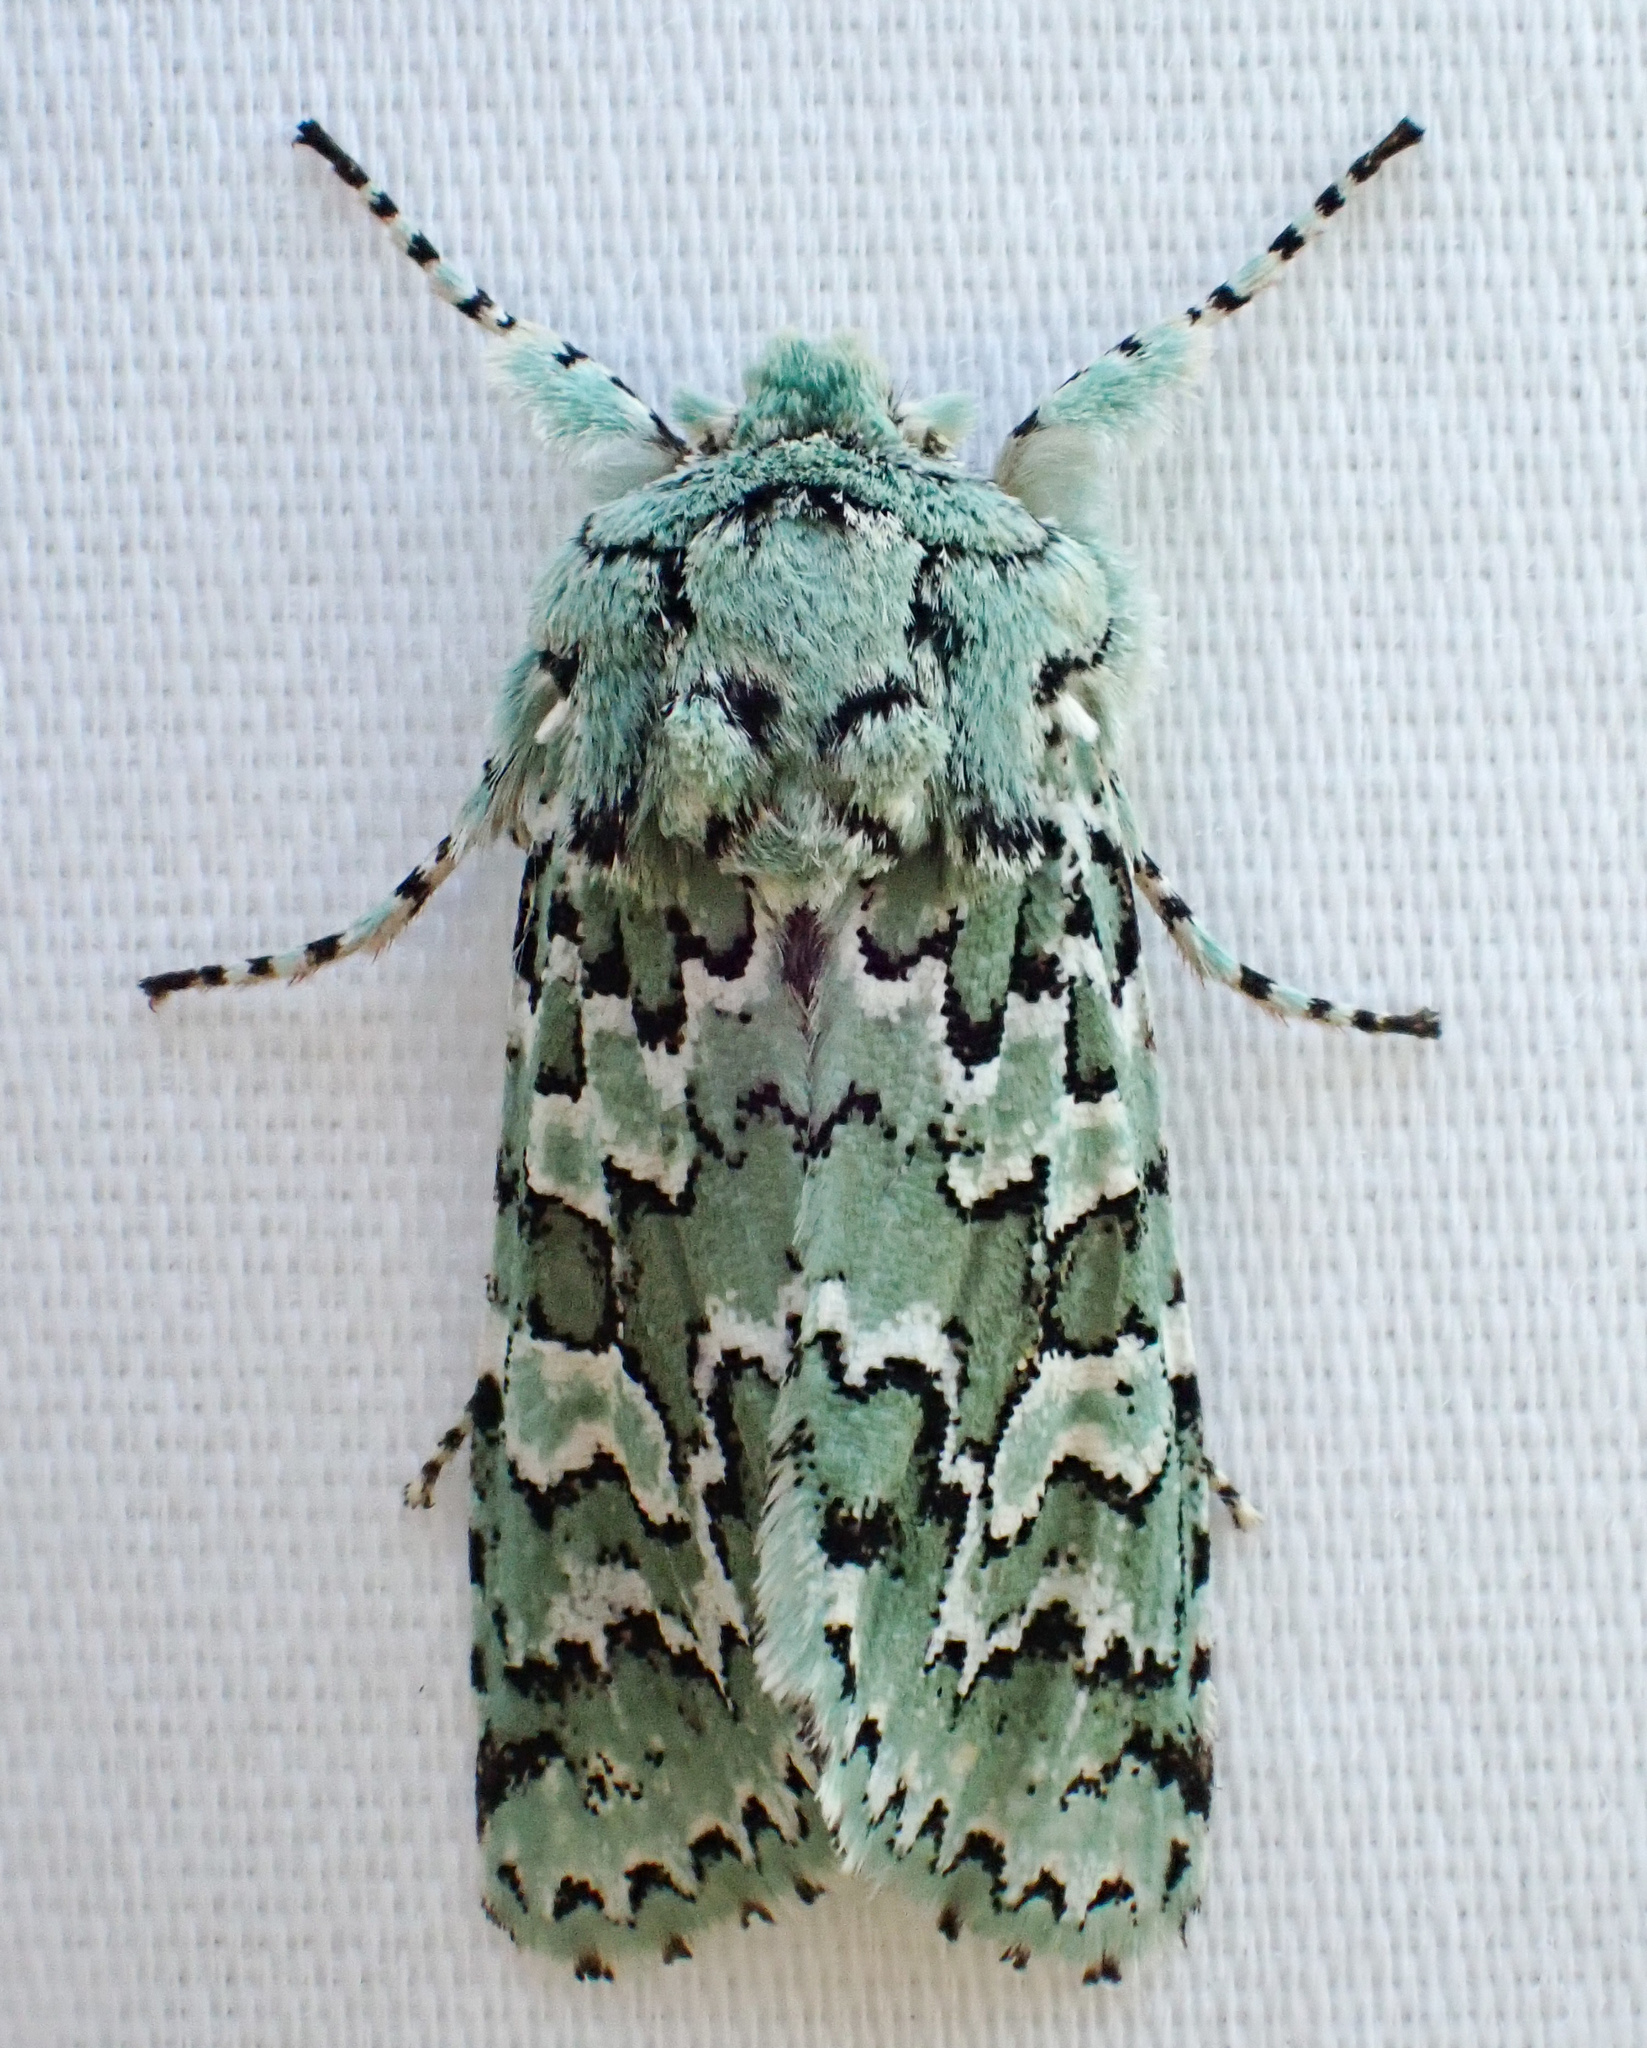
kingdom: Animalia
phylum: Arthropoda
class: Insecta
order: Lepidoptera
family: Noctuidae
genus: Feralia
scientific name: Feralia februalis
